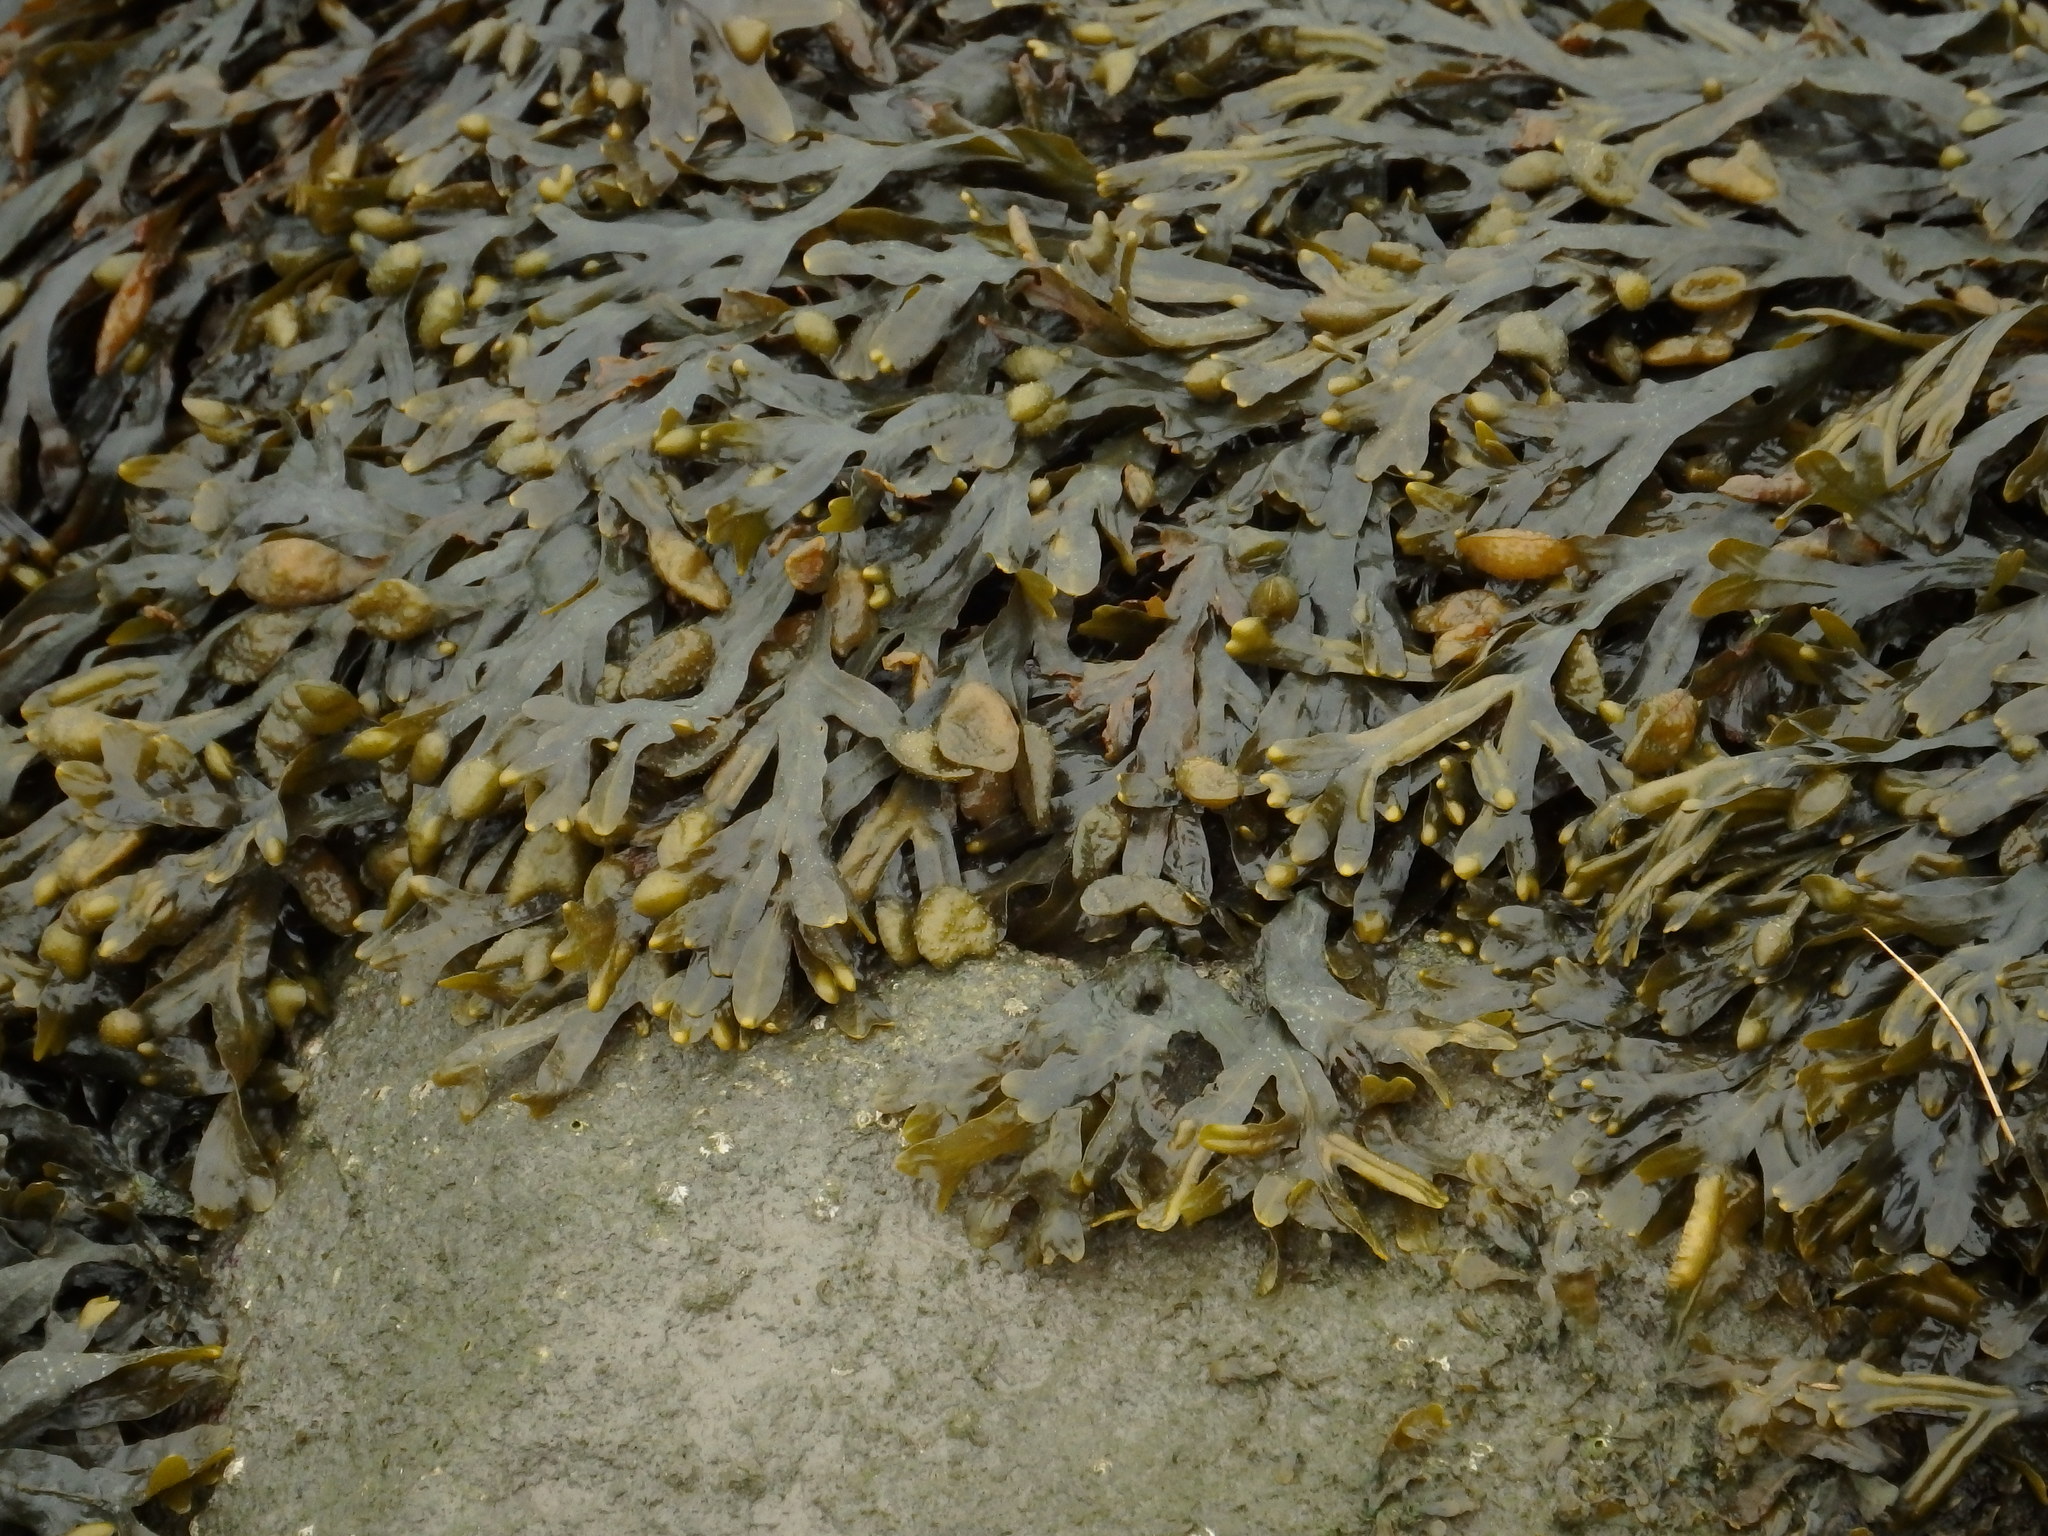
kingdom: Chromista
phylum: Ochrophyta
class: Phaeophyceae
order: Fucales
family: Fucaceae
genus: Fucus
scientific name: Fucus
